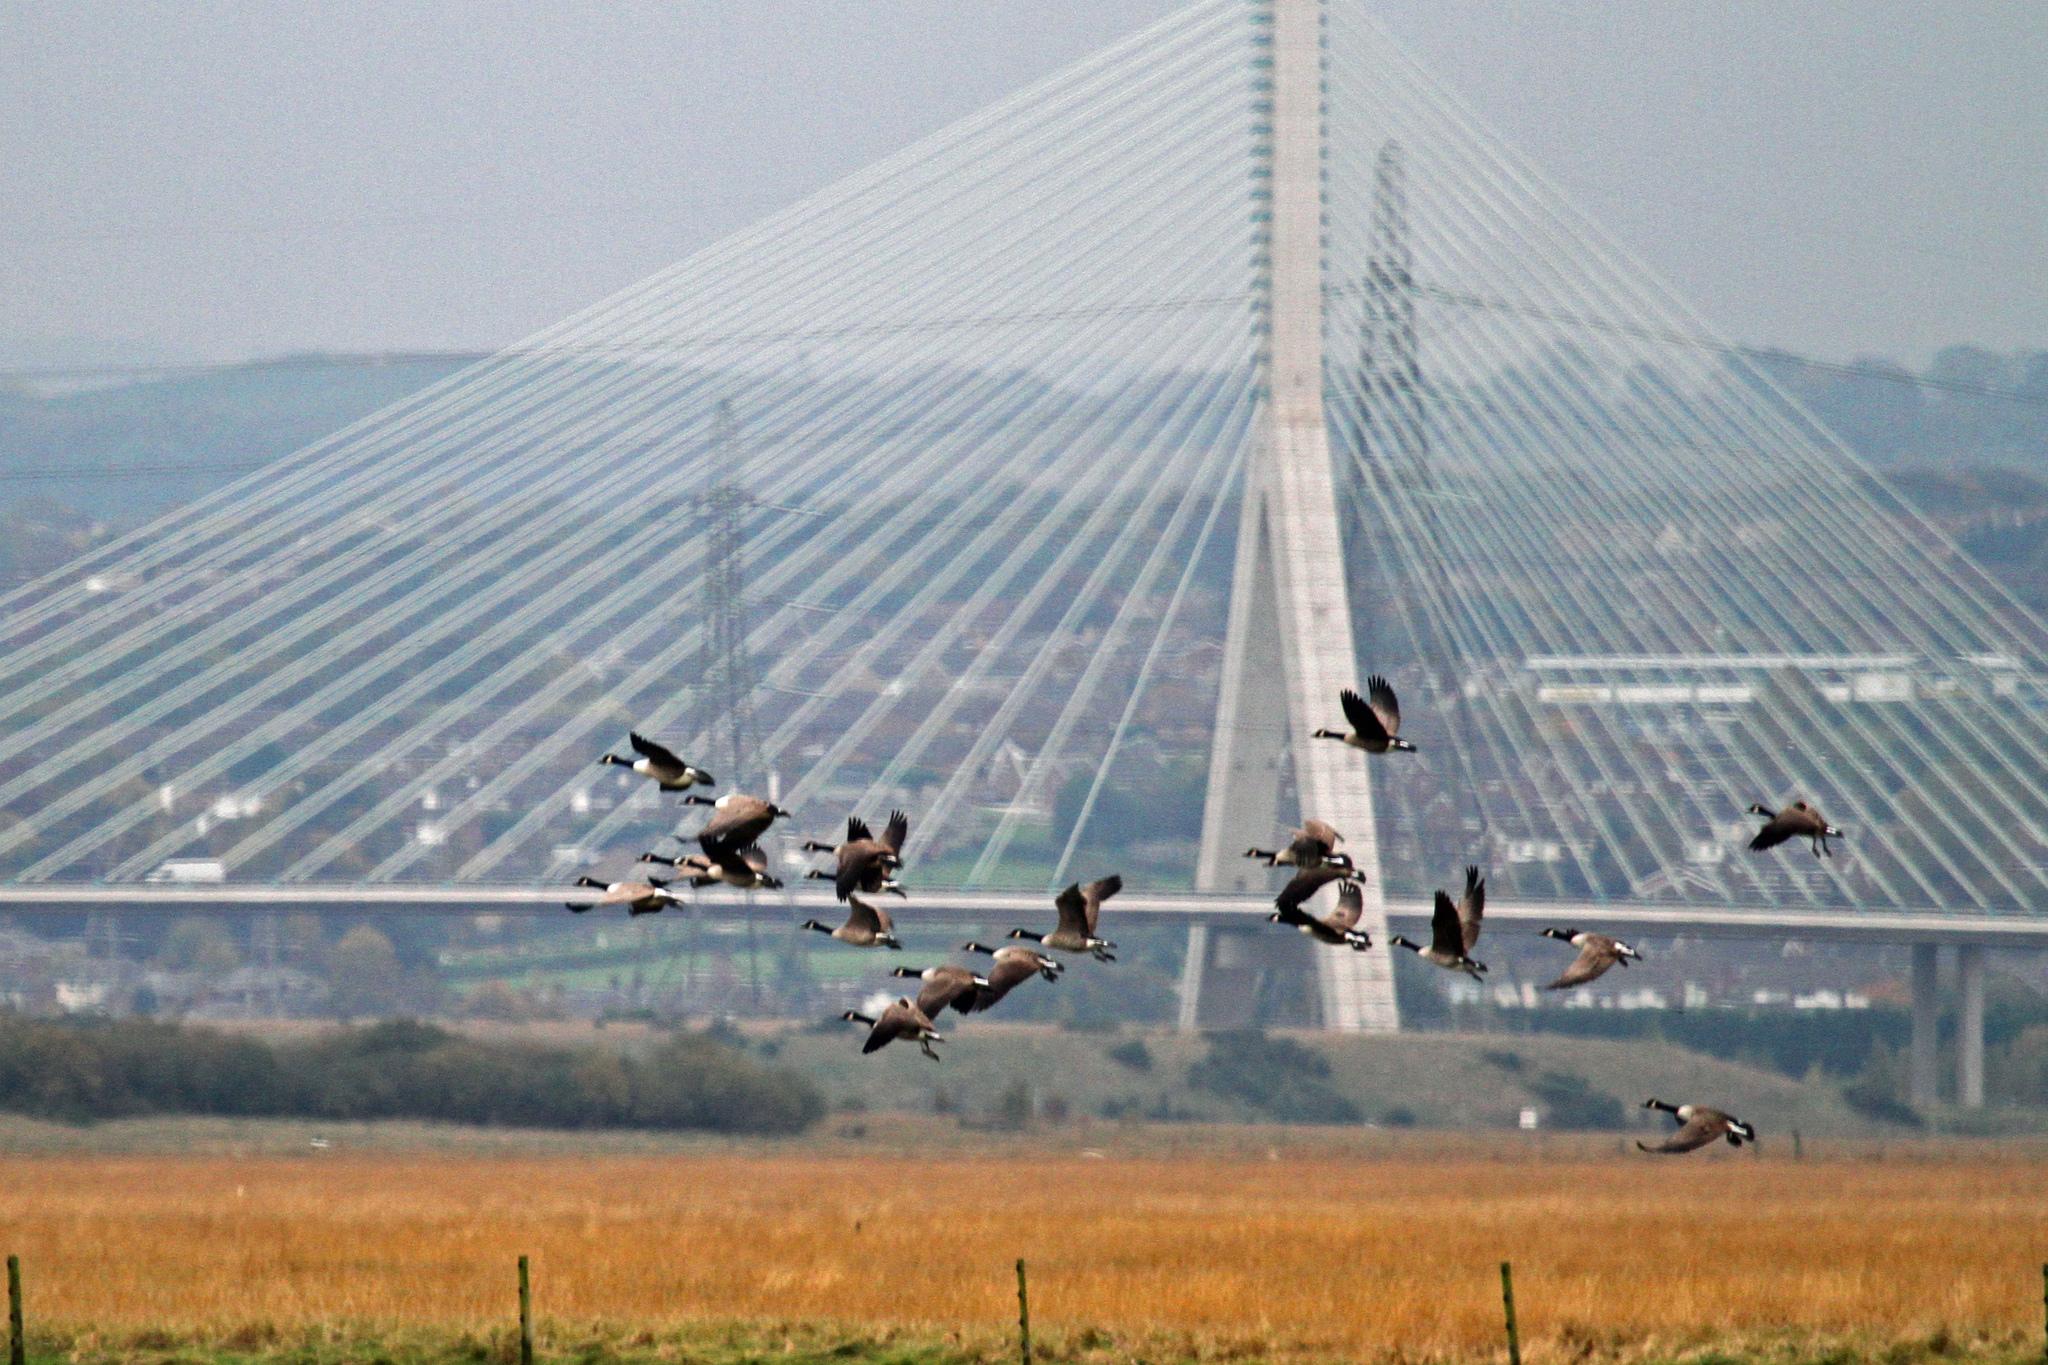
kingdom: Animalia
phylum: Chordata
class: Aves
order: Anseriformes
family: Anatidae
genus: Branta
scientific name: Branta canadensis
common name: Canada goose
